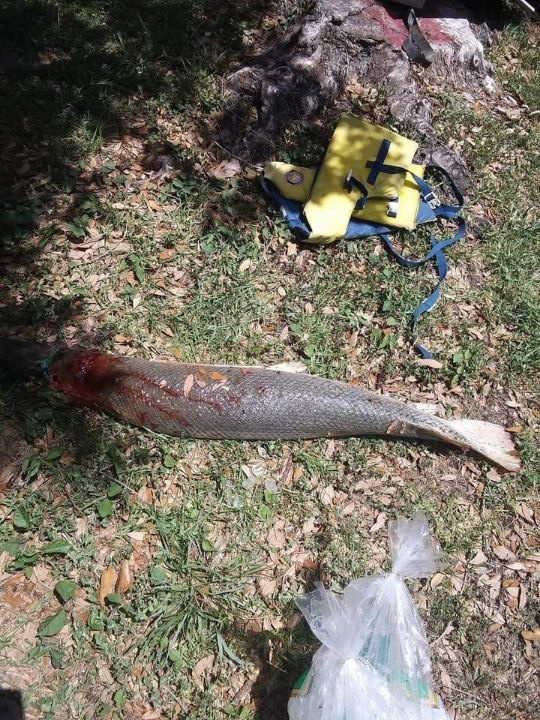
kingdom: Animalia
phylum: Chordata
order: Lepisosteiformes
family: Lepisosteidae
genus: Atractosteus
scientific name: Atractosteus spatula
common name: Alligator gar
